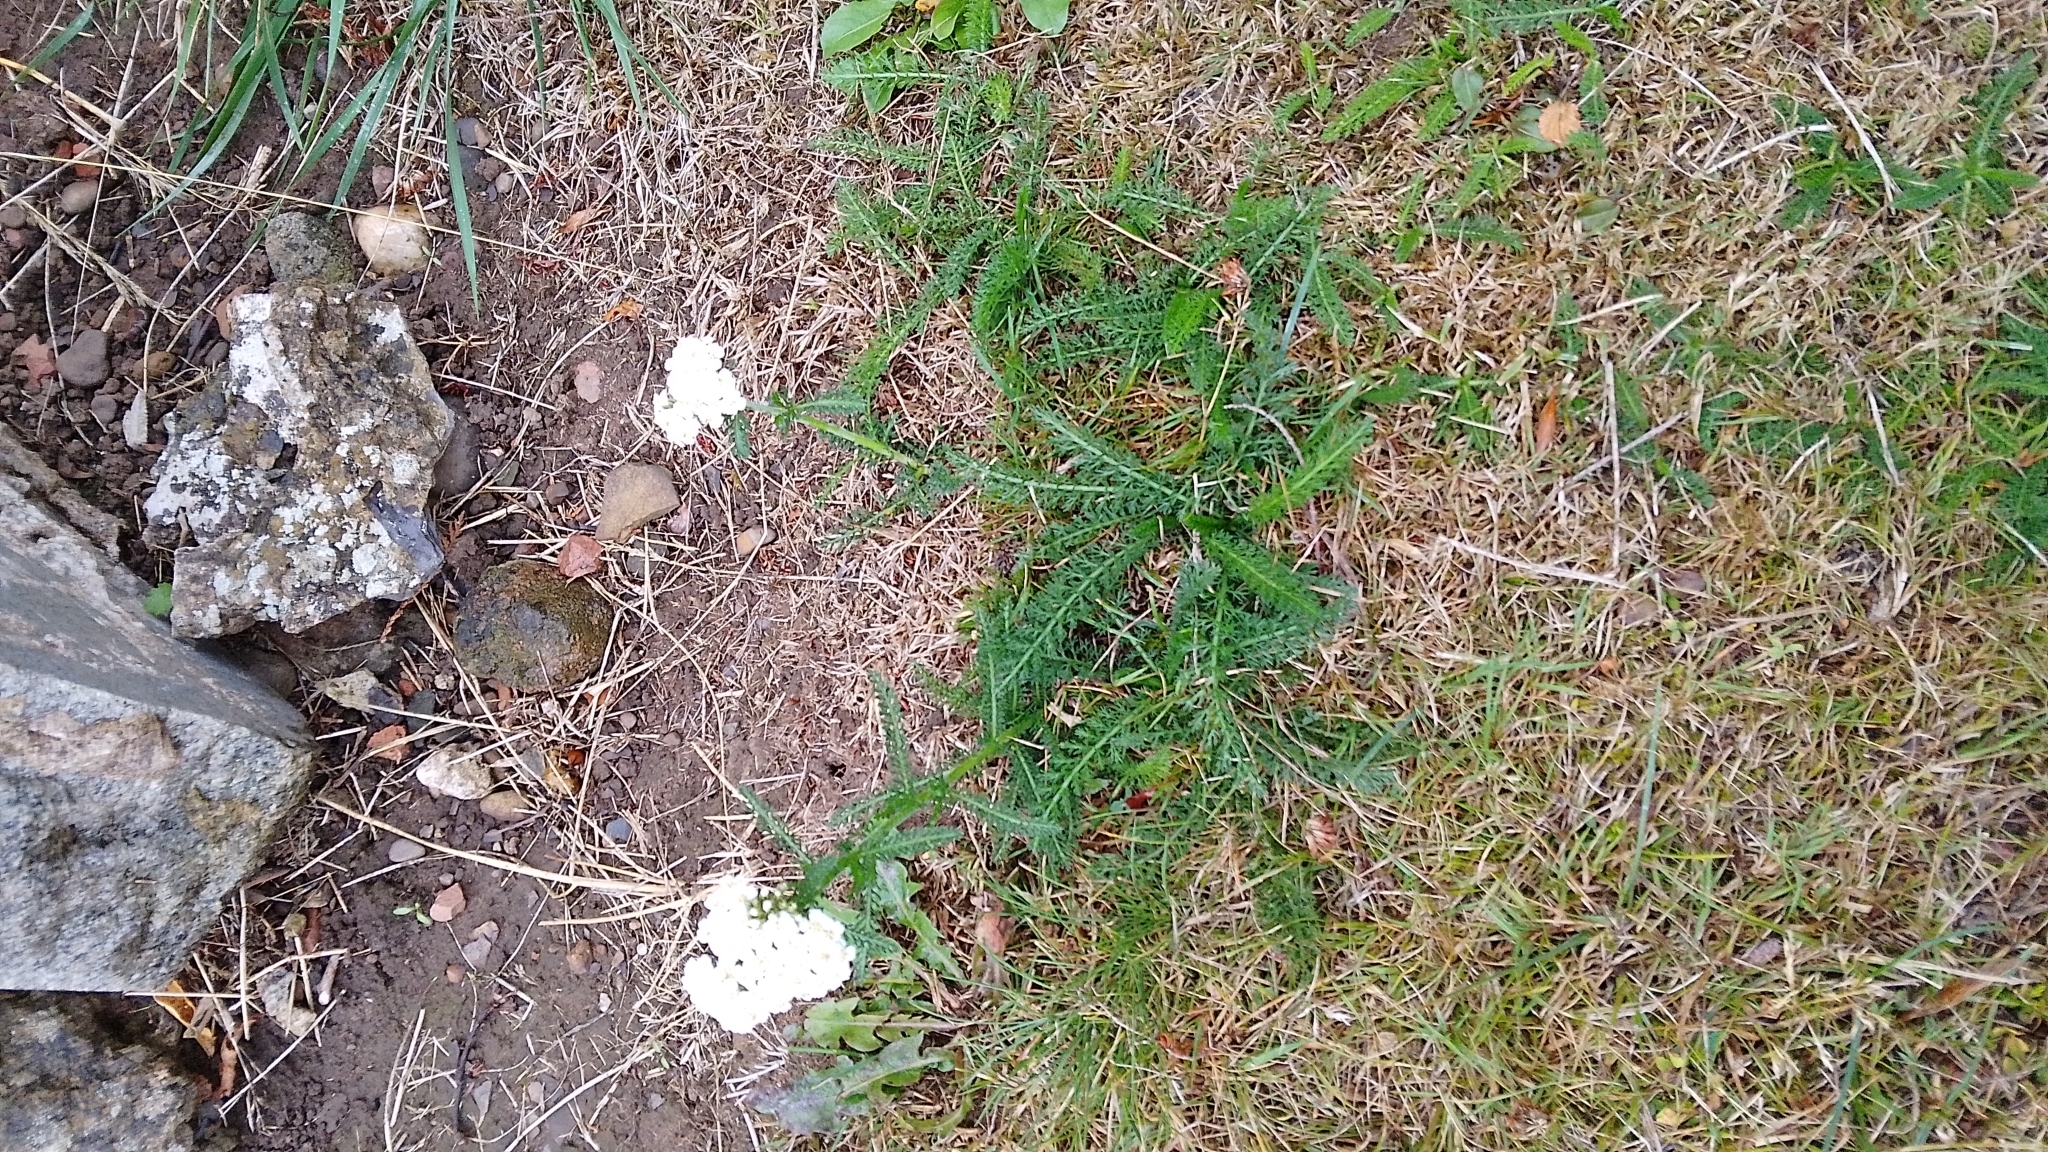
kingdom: Plantae
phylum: Tracheophyta
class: Magnoliopsida
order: Asterales
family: Asteraceae
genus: Achillea
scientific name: Achillea millefolium
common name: Yarrow
